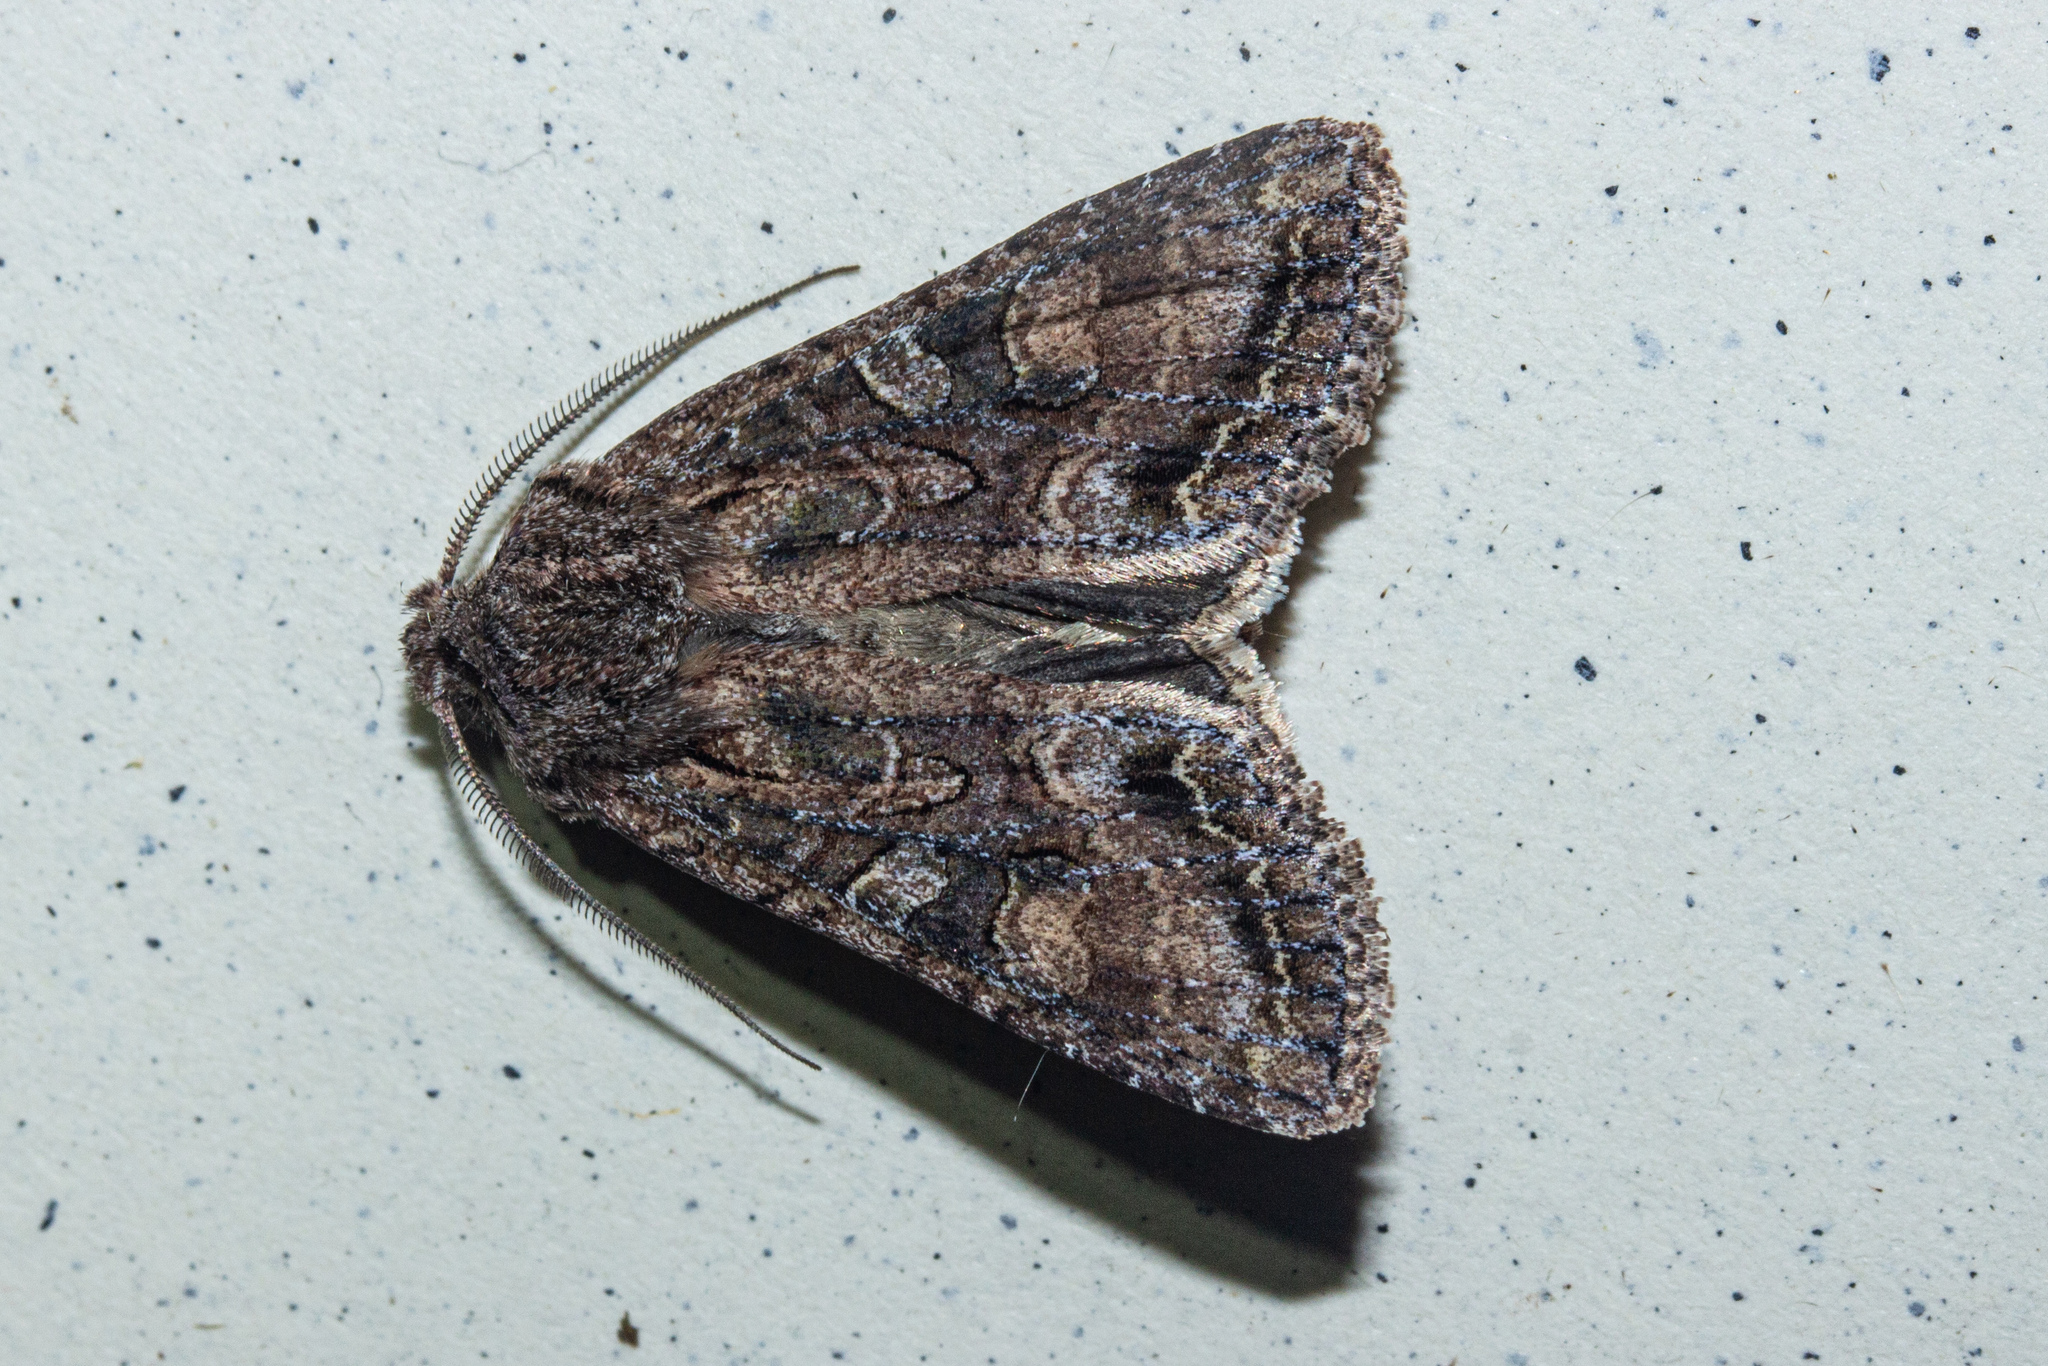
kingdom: Animalia
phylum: Arthropoda
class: Insecta
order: Lepidoptera
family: Noctuidae
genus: Ichneutica
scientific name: Ichneutica mutans
